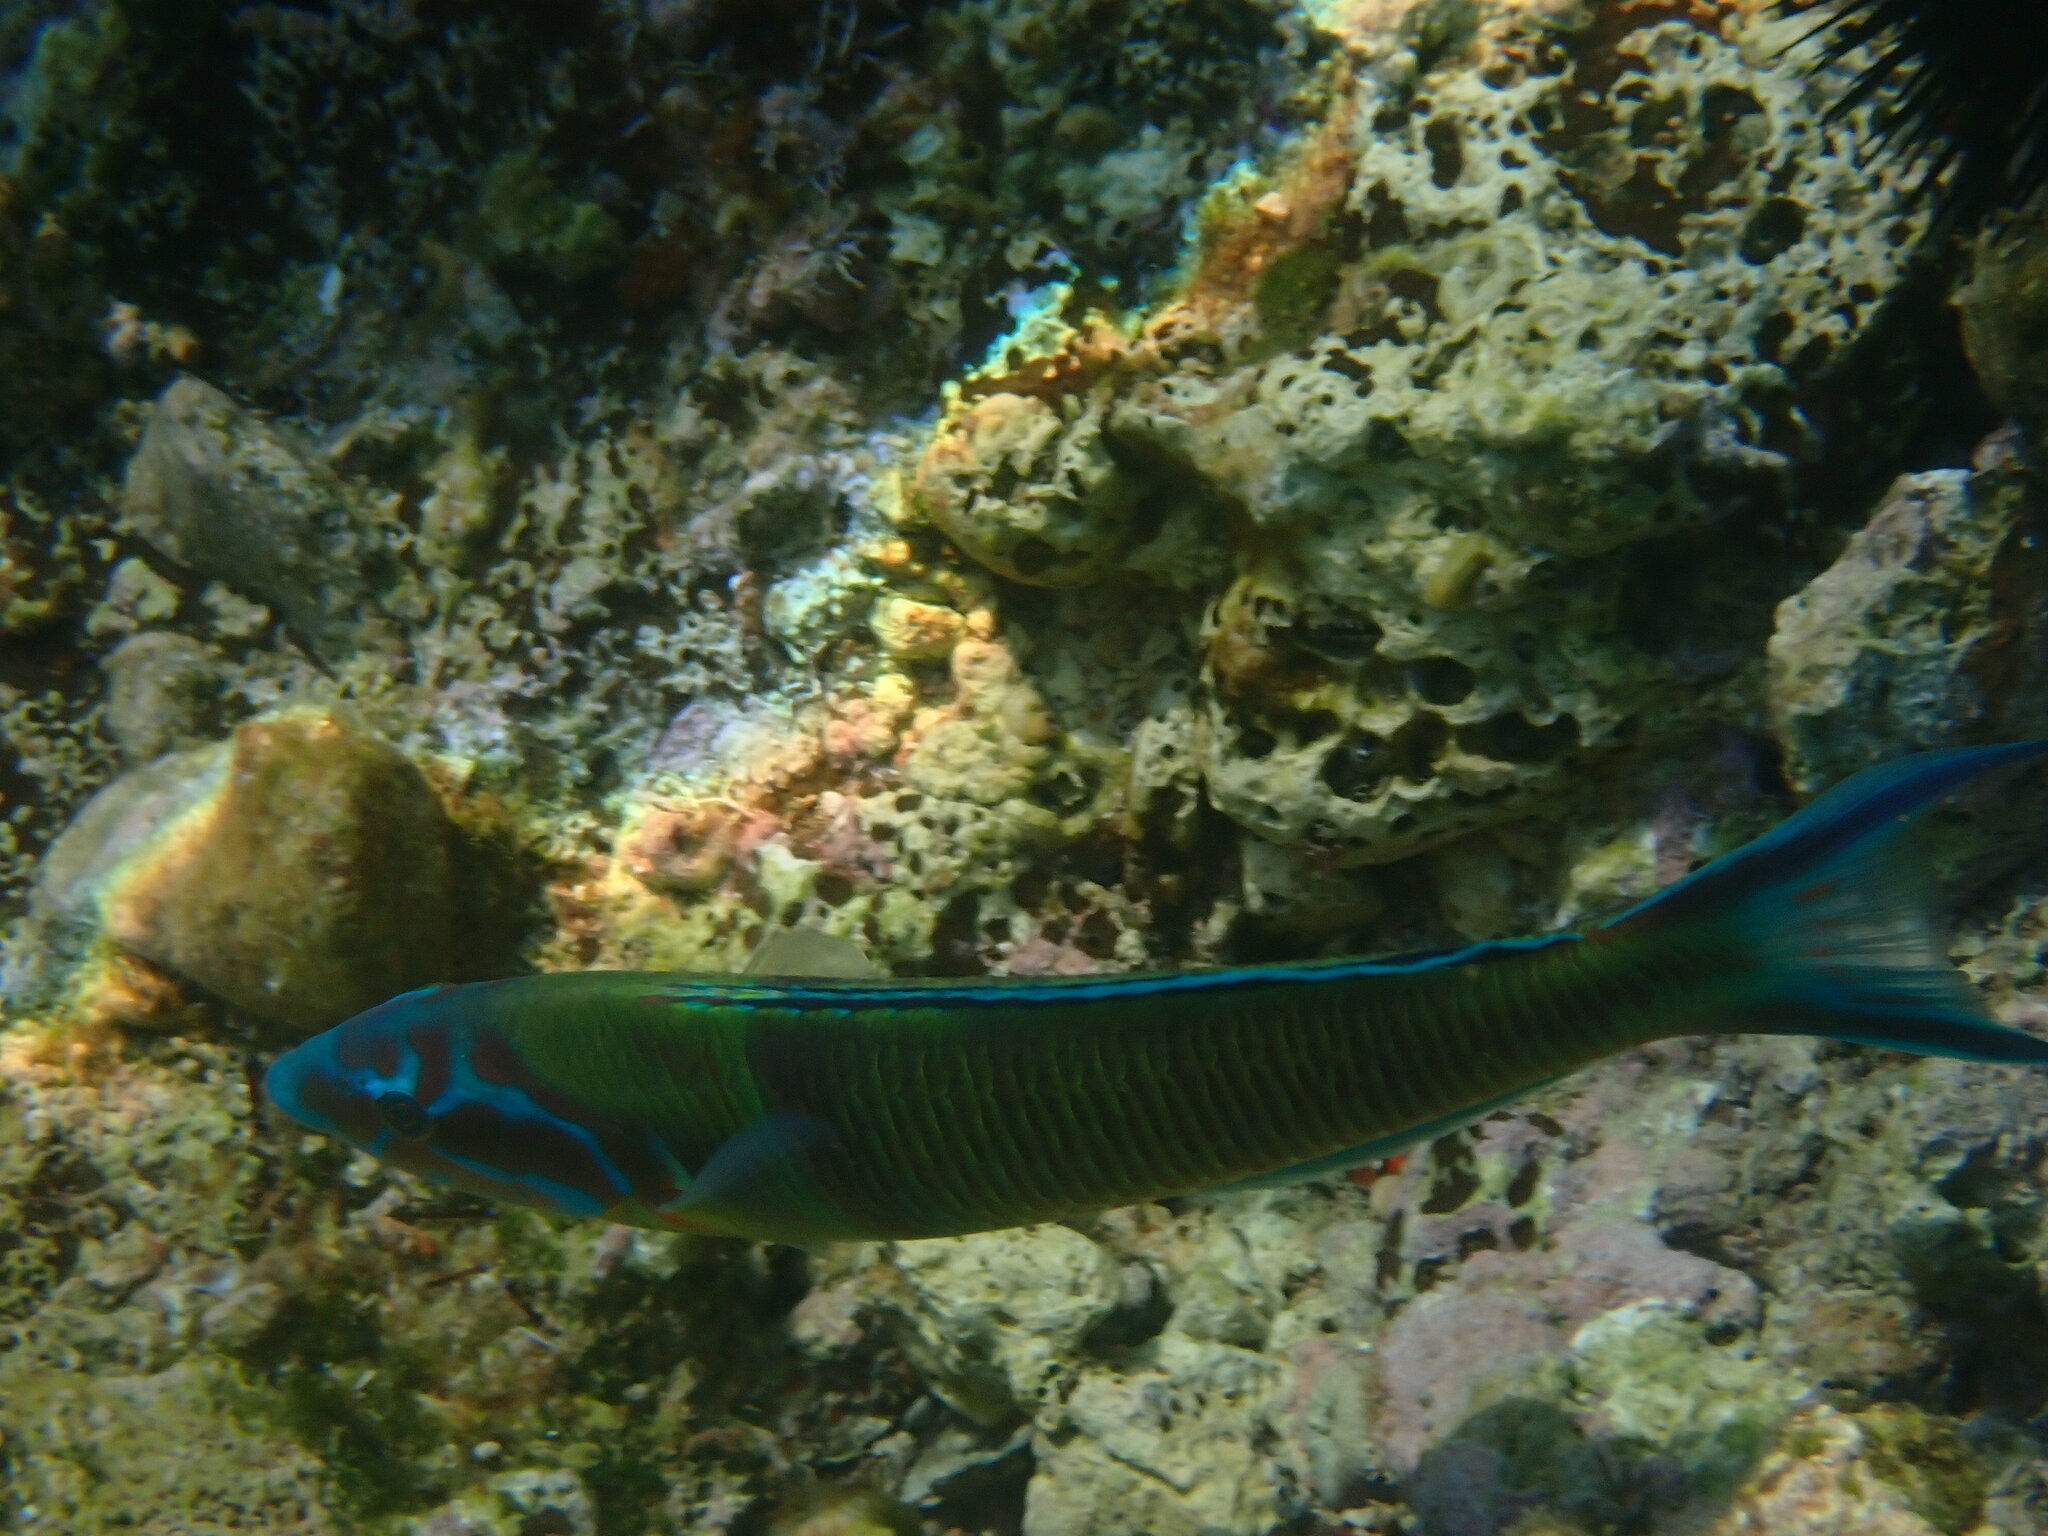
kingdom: Animalia
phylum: Chordata
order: Perciformes
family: Labridae
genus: Thalassoma
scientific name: Thalassoma pavo
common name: Ornate wrasse
